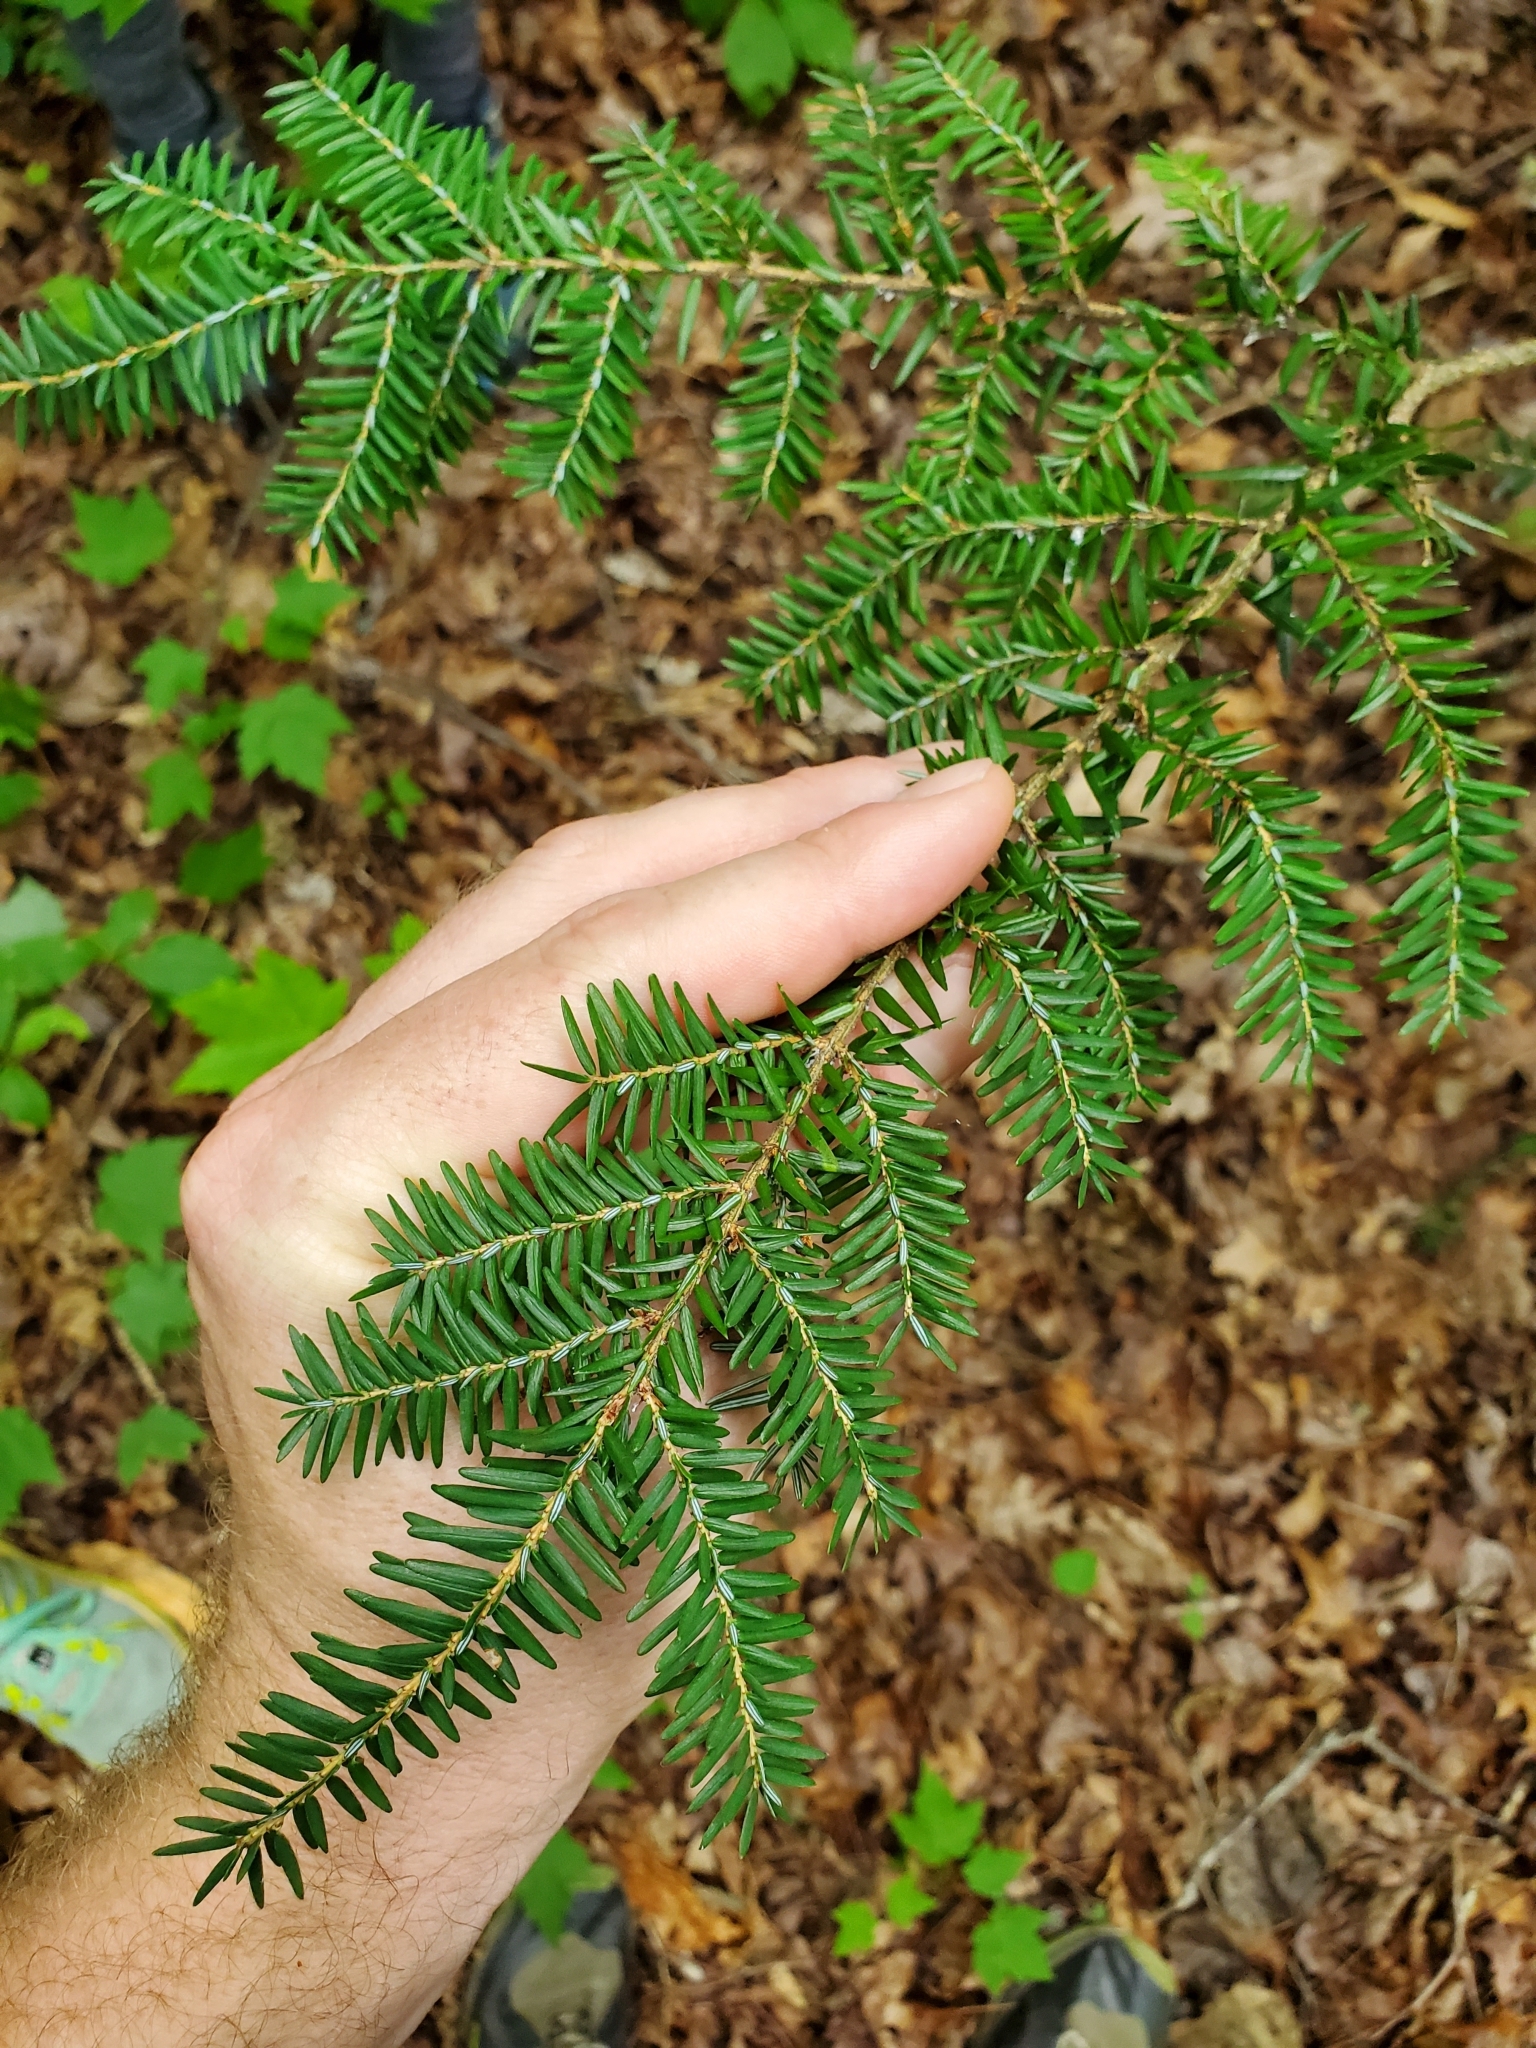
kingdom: Plantae
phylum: Tracheophyta
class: Pinopsida
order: Pinales
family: Pinaceae
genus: Tsuga
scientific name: Tsuga canadensis
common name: Eastern hemlock
